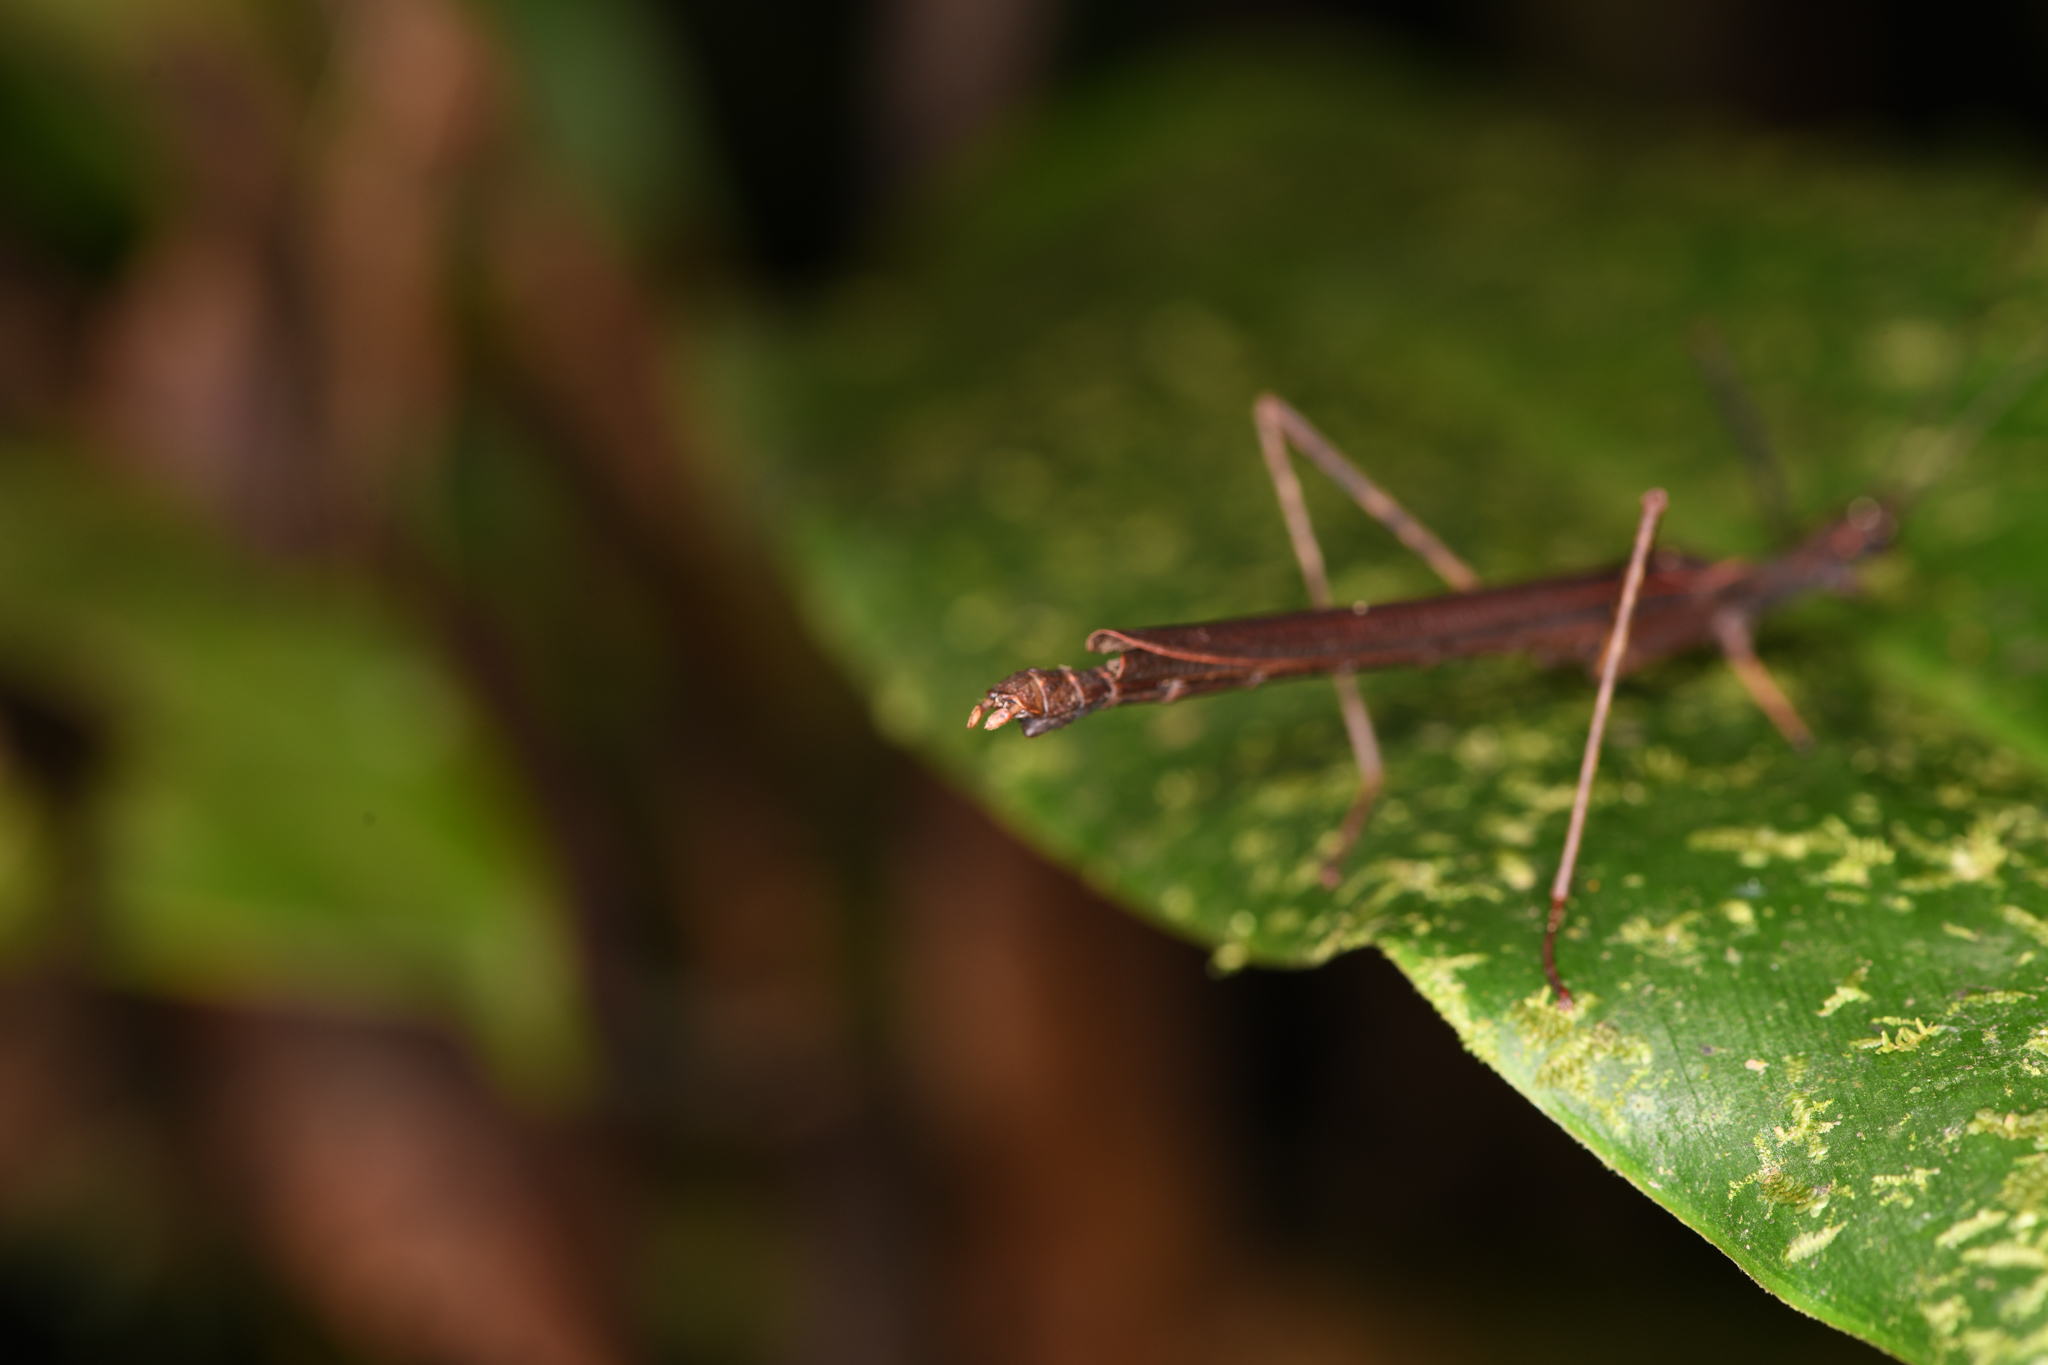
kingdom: Animalia
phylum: Arthropoda
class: Insecta
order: Phasmida
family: Pseudophasmatidae
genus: Pseudophasma
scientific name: Pseudophasma unicolor
